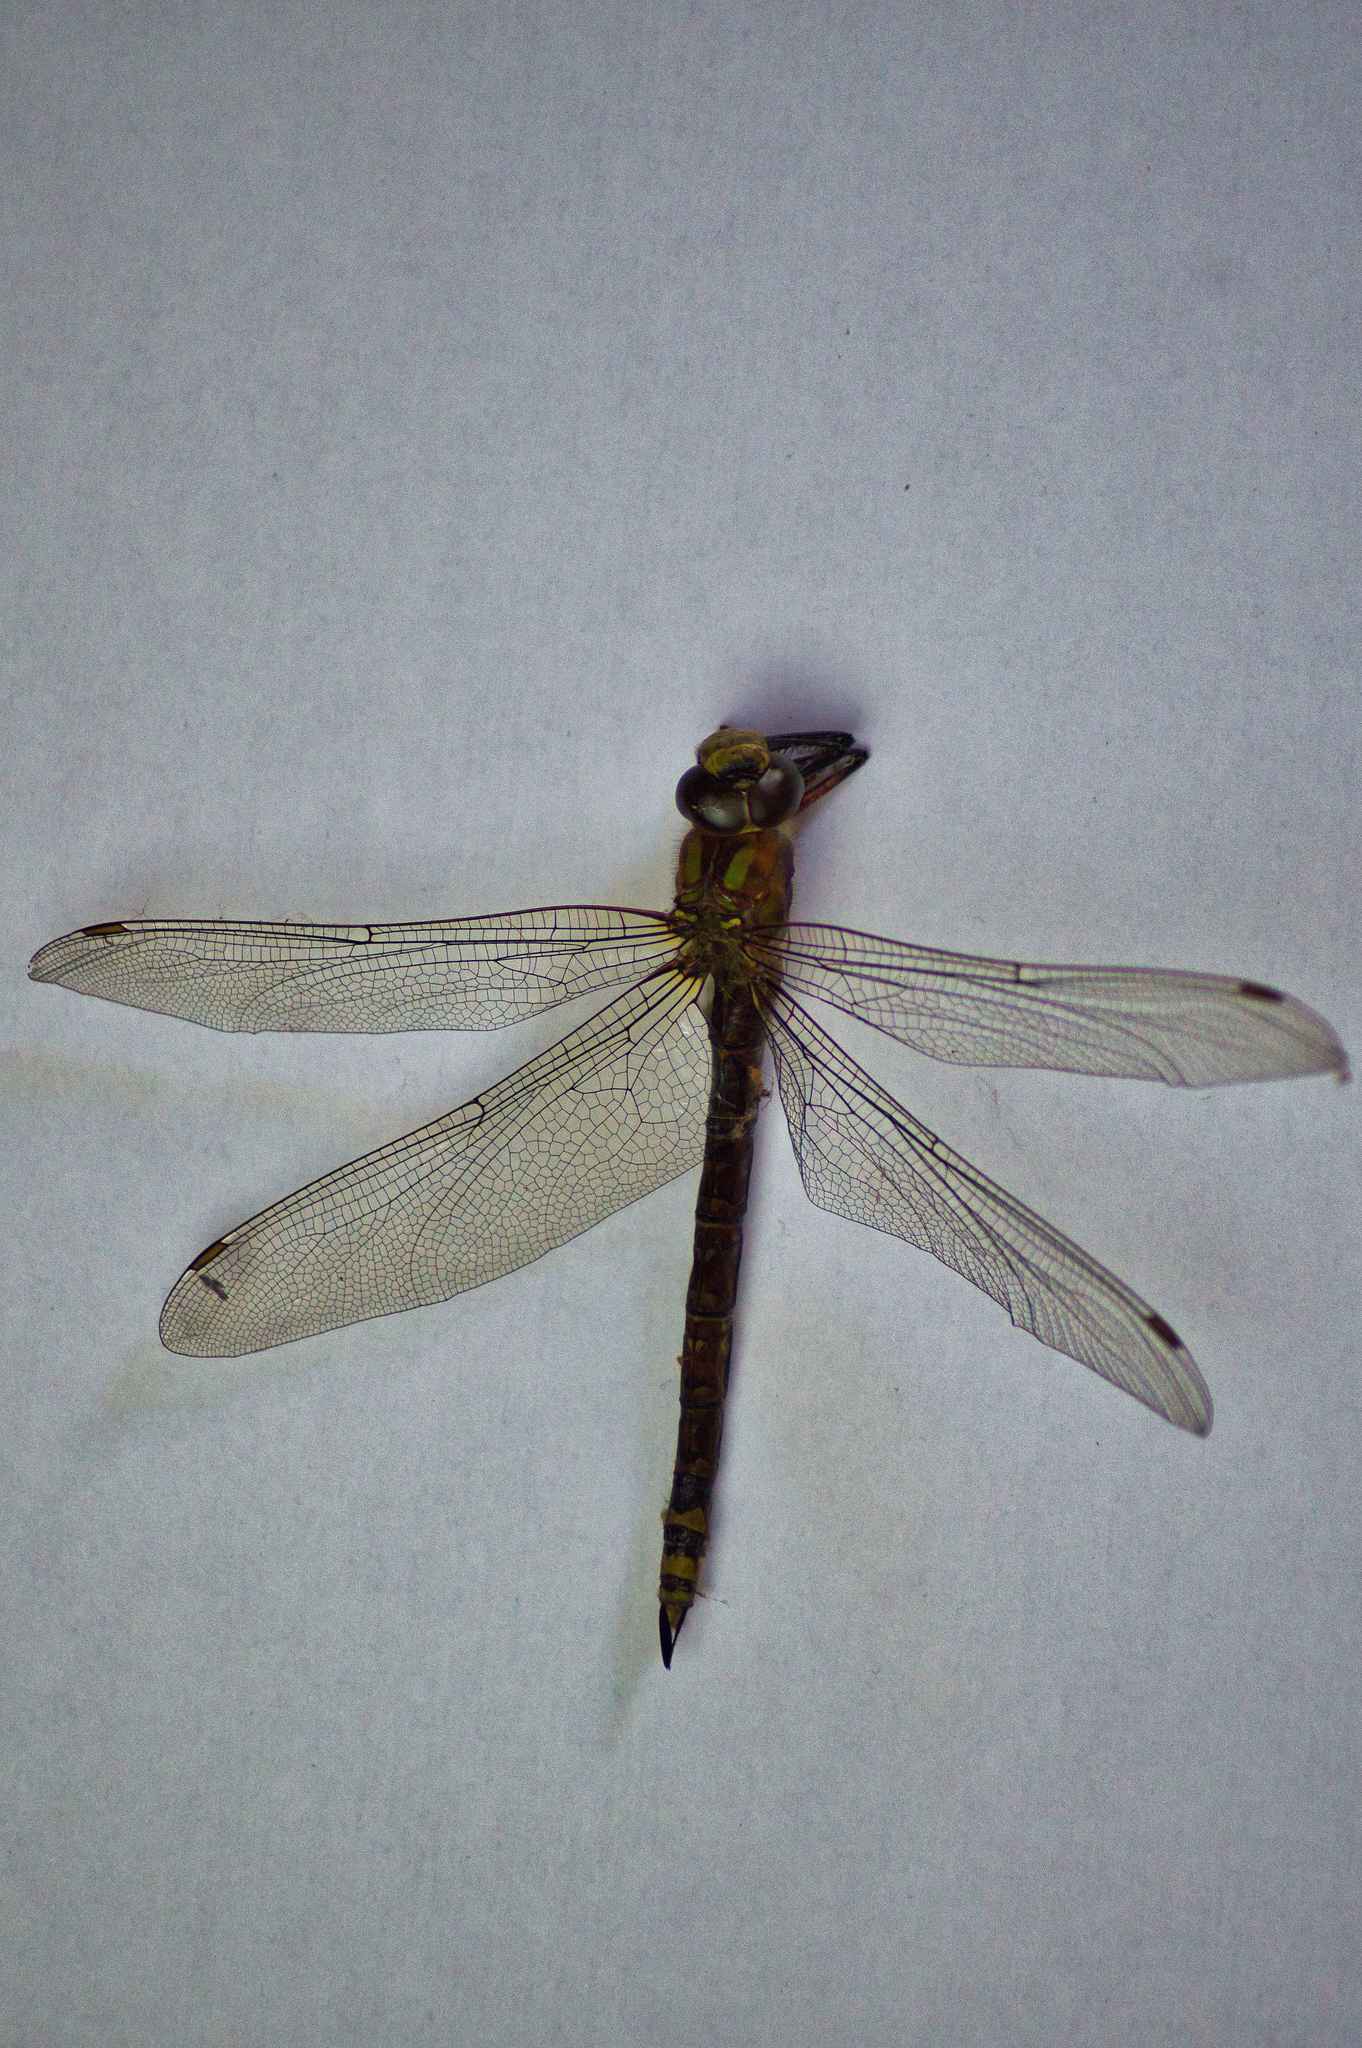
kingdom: Animalia
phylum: Arthropoda
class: Insecta
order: Odonata
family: Aeshnidae
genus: Aeshna
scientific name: Aeshna cyanea
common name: Southern hawker
